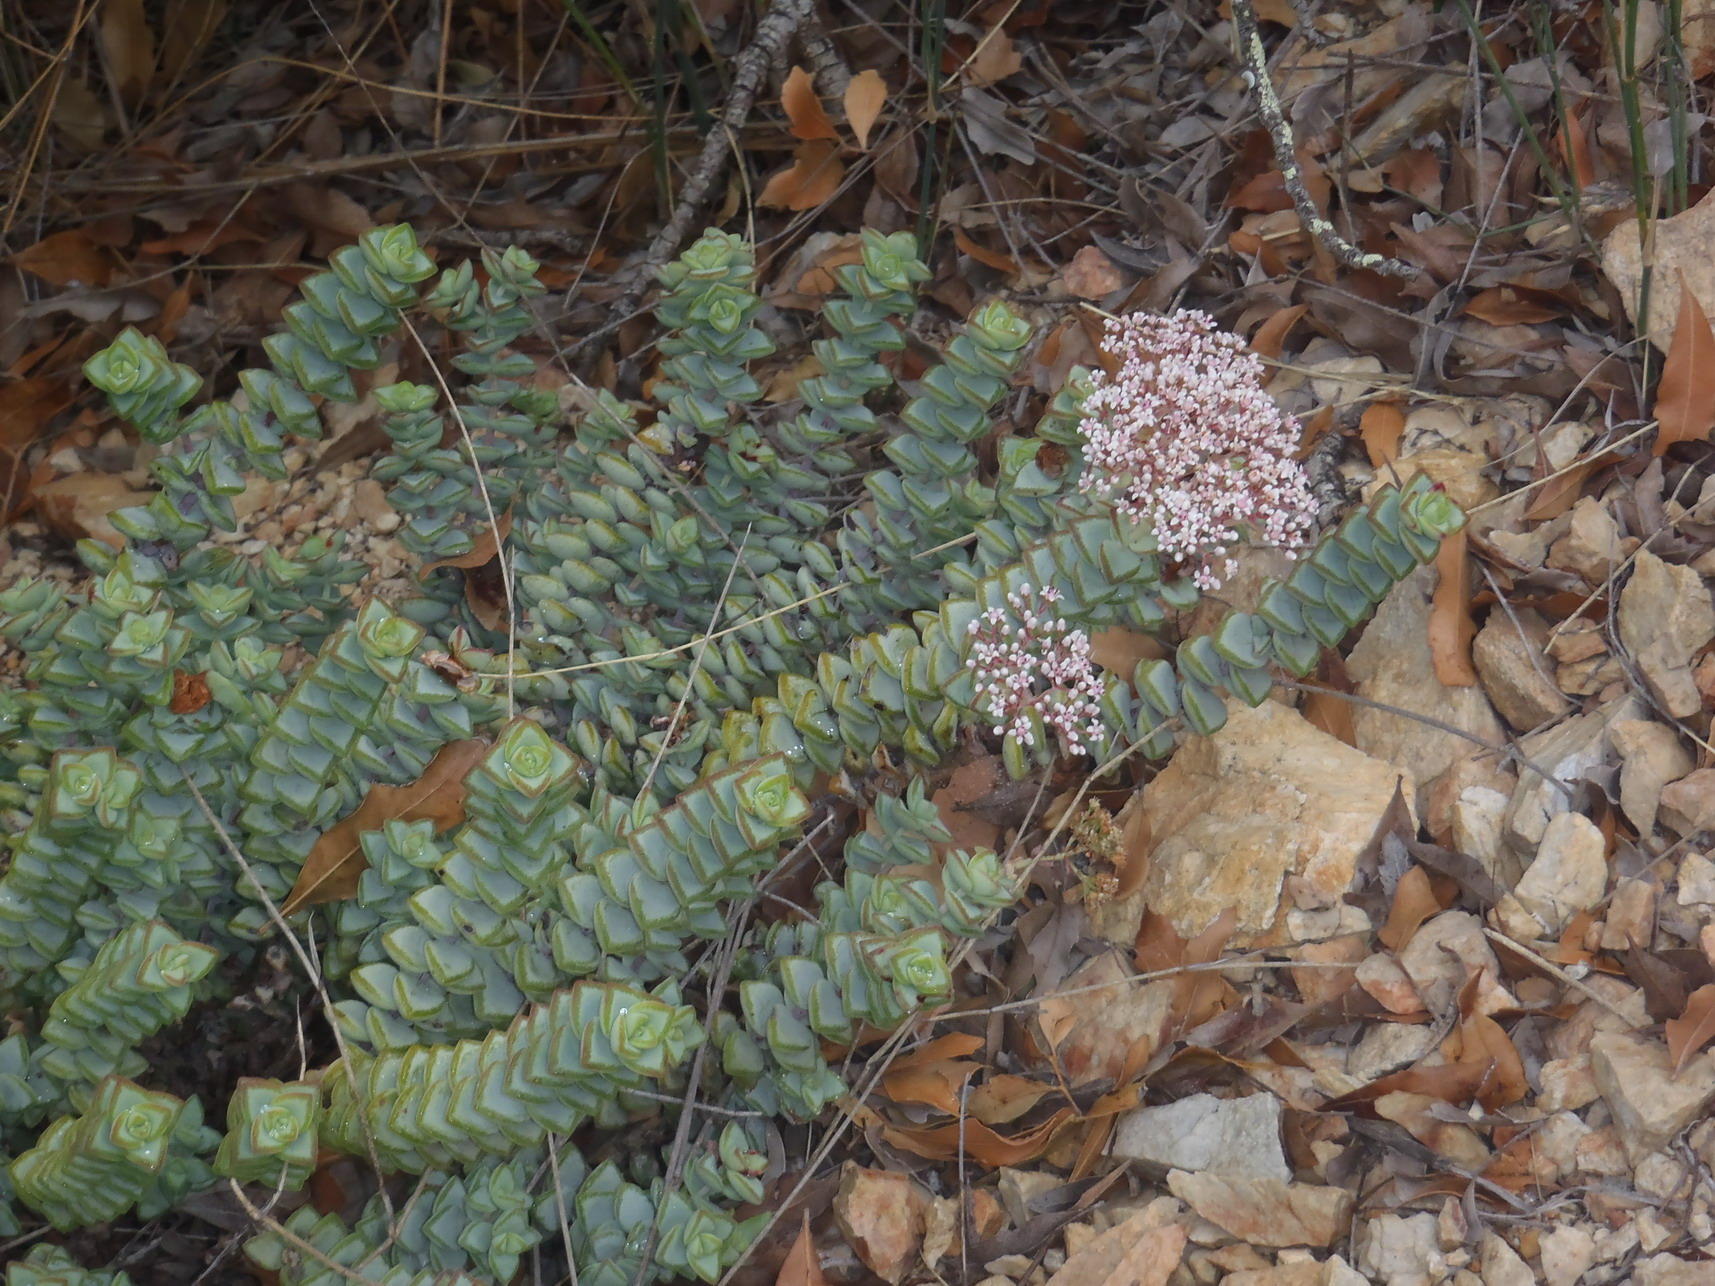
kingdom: Plantae
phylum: Tracheophyta
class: Magnoliopsida
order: Saxifragales
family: Crassulaceae
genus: Crassula
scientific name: Crassula rupestris
